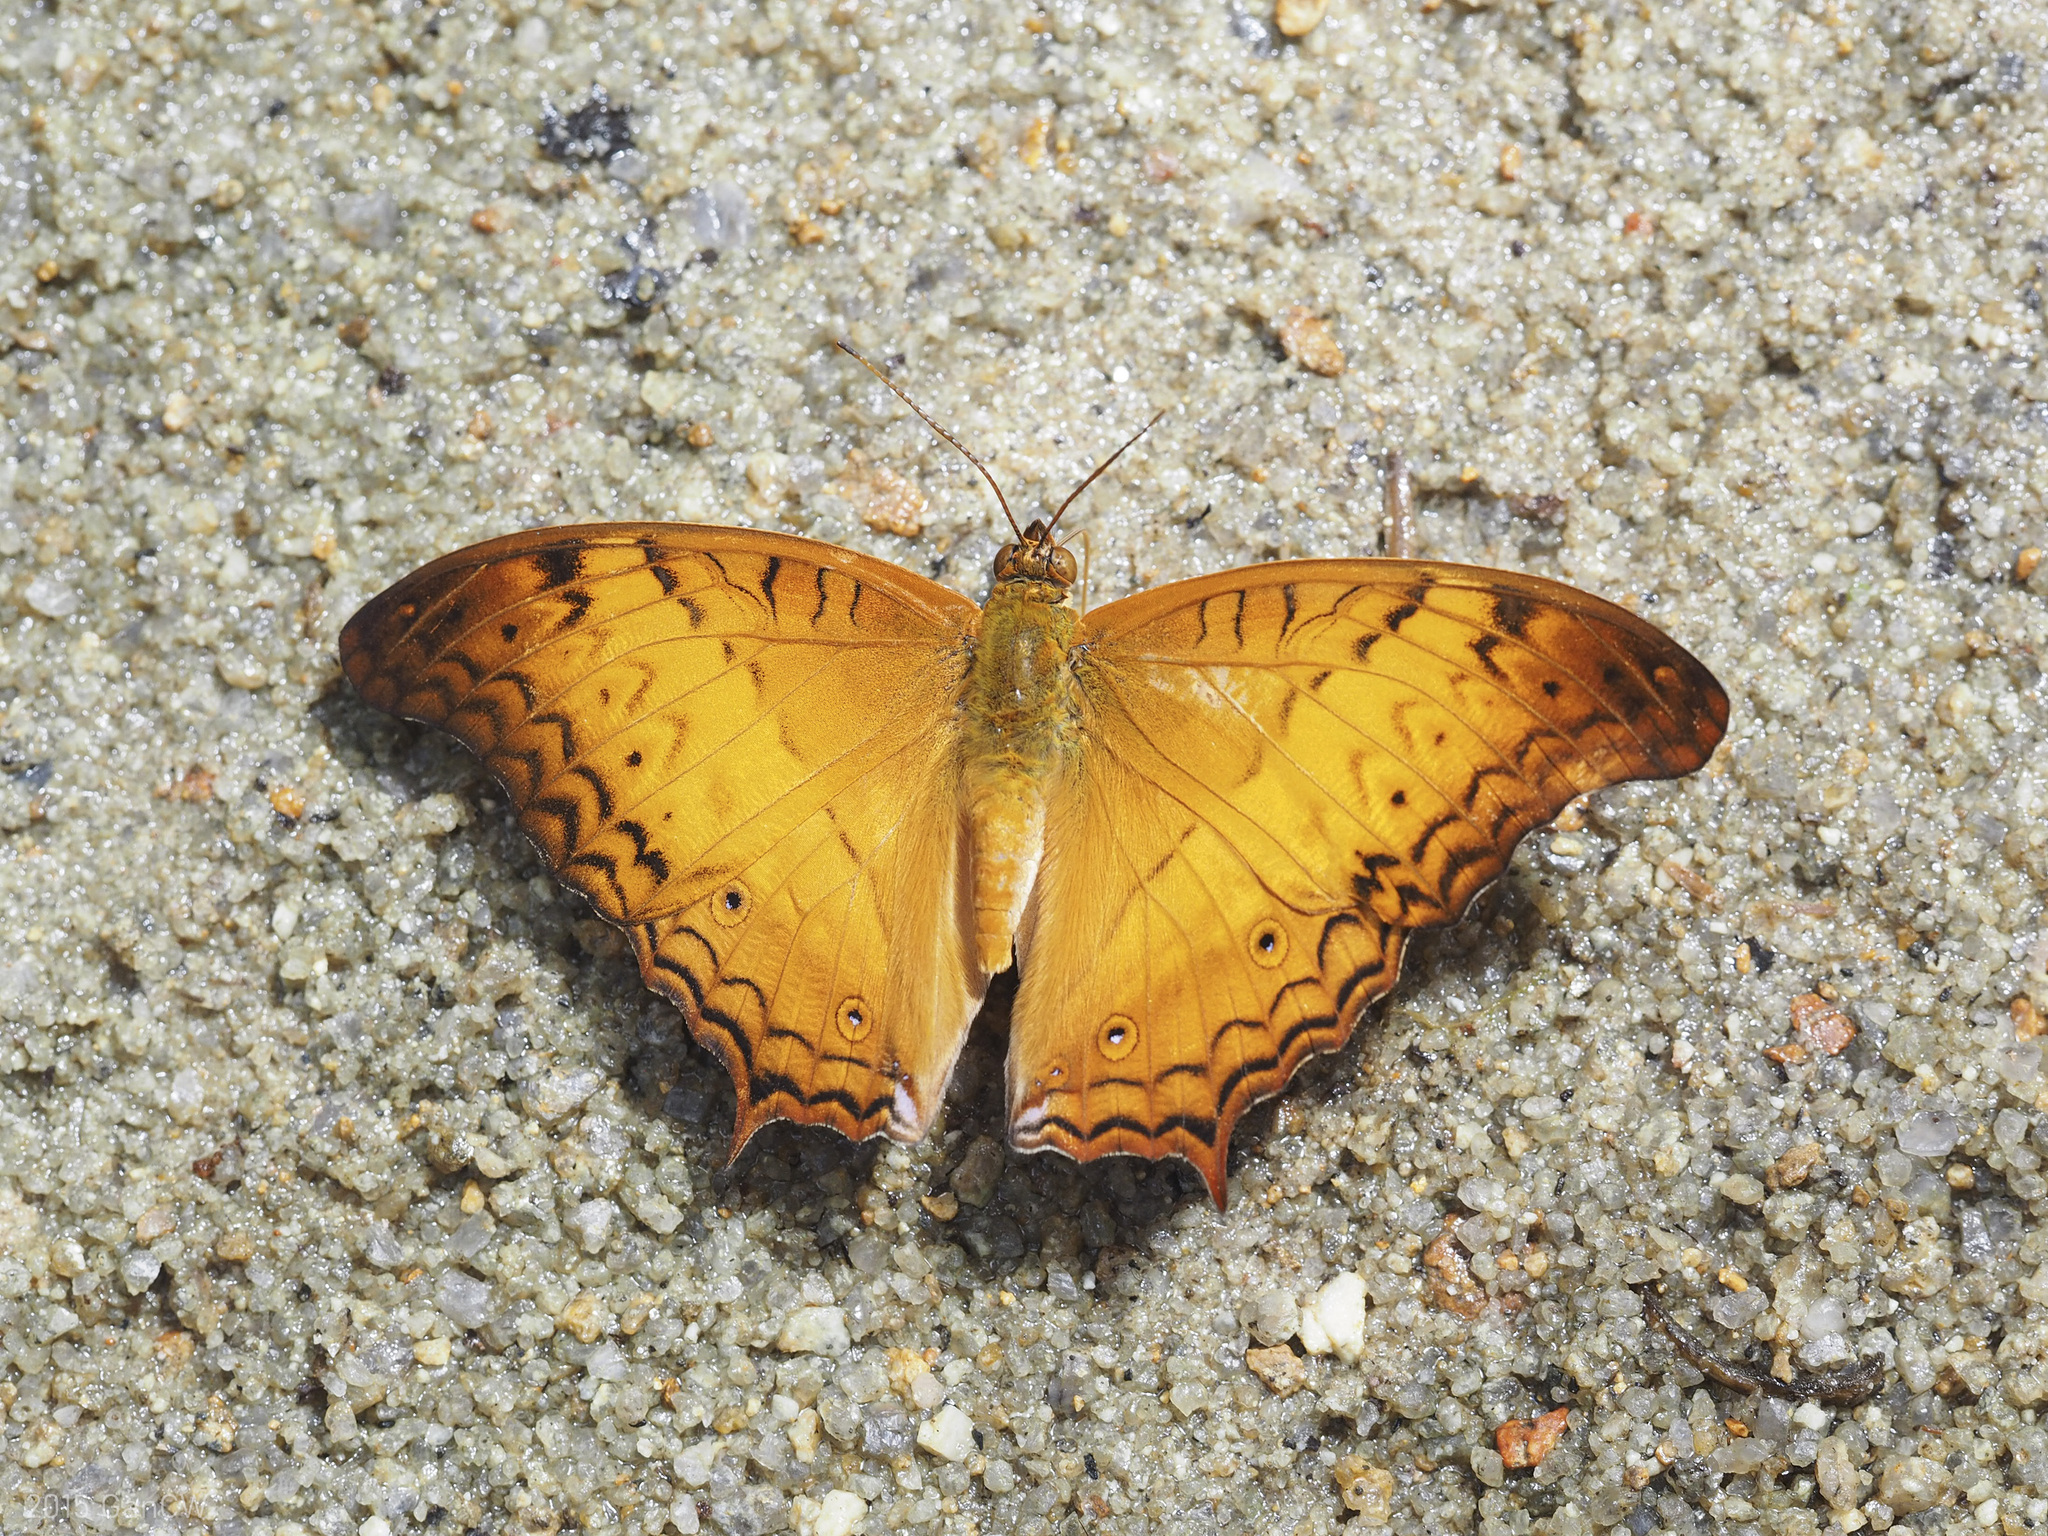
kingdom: Animalia
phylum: Arthropoda
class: Insecta
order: Lepidoptera
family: Nymphalidae
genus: Vindula
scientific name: Vindula deione
